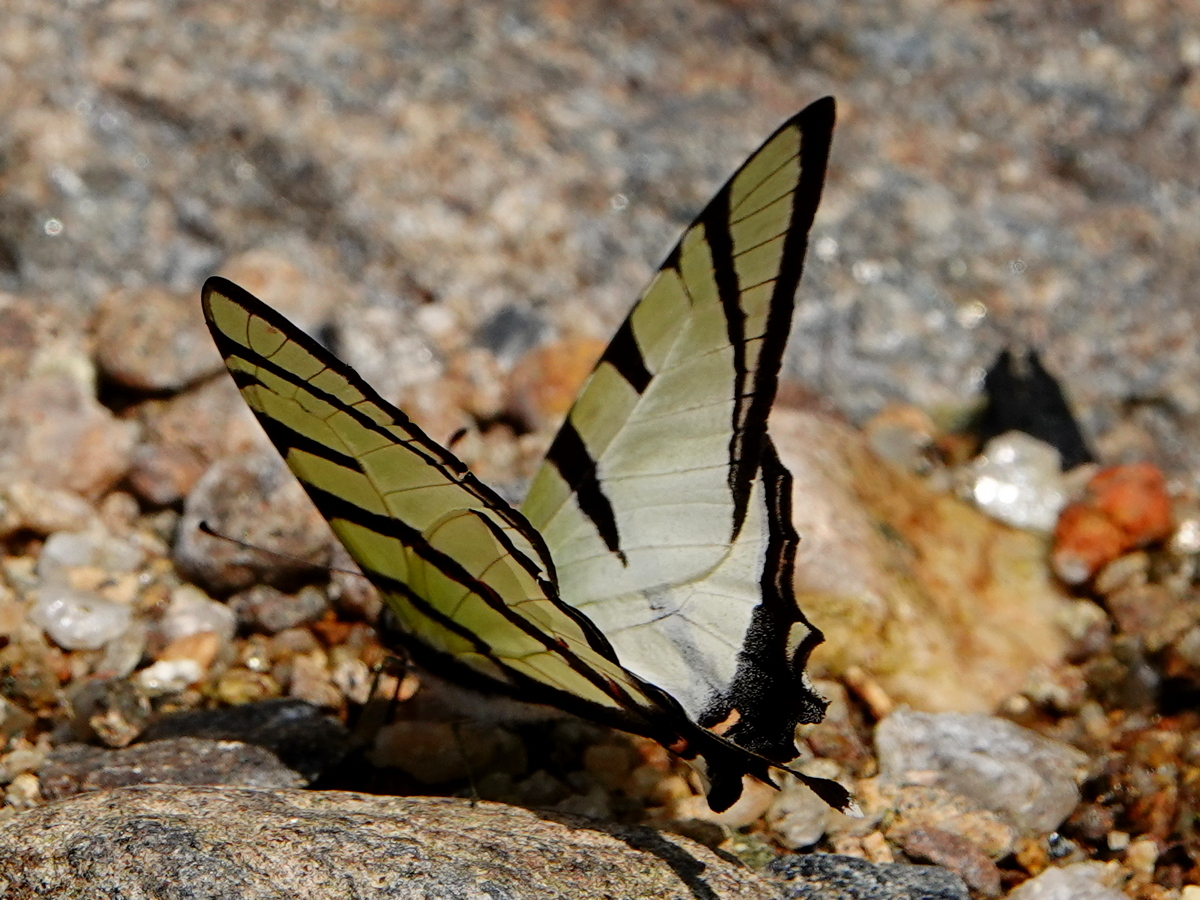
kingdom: Animalia
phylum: Arthropoda
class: Insecta
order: Lepidoptera
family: Papilionidae
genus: Graphium
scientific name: Graphium agetes
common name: Fourbar swordtail
